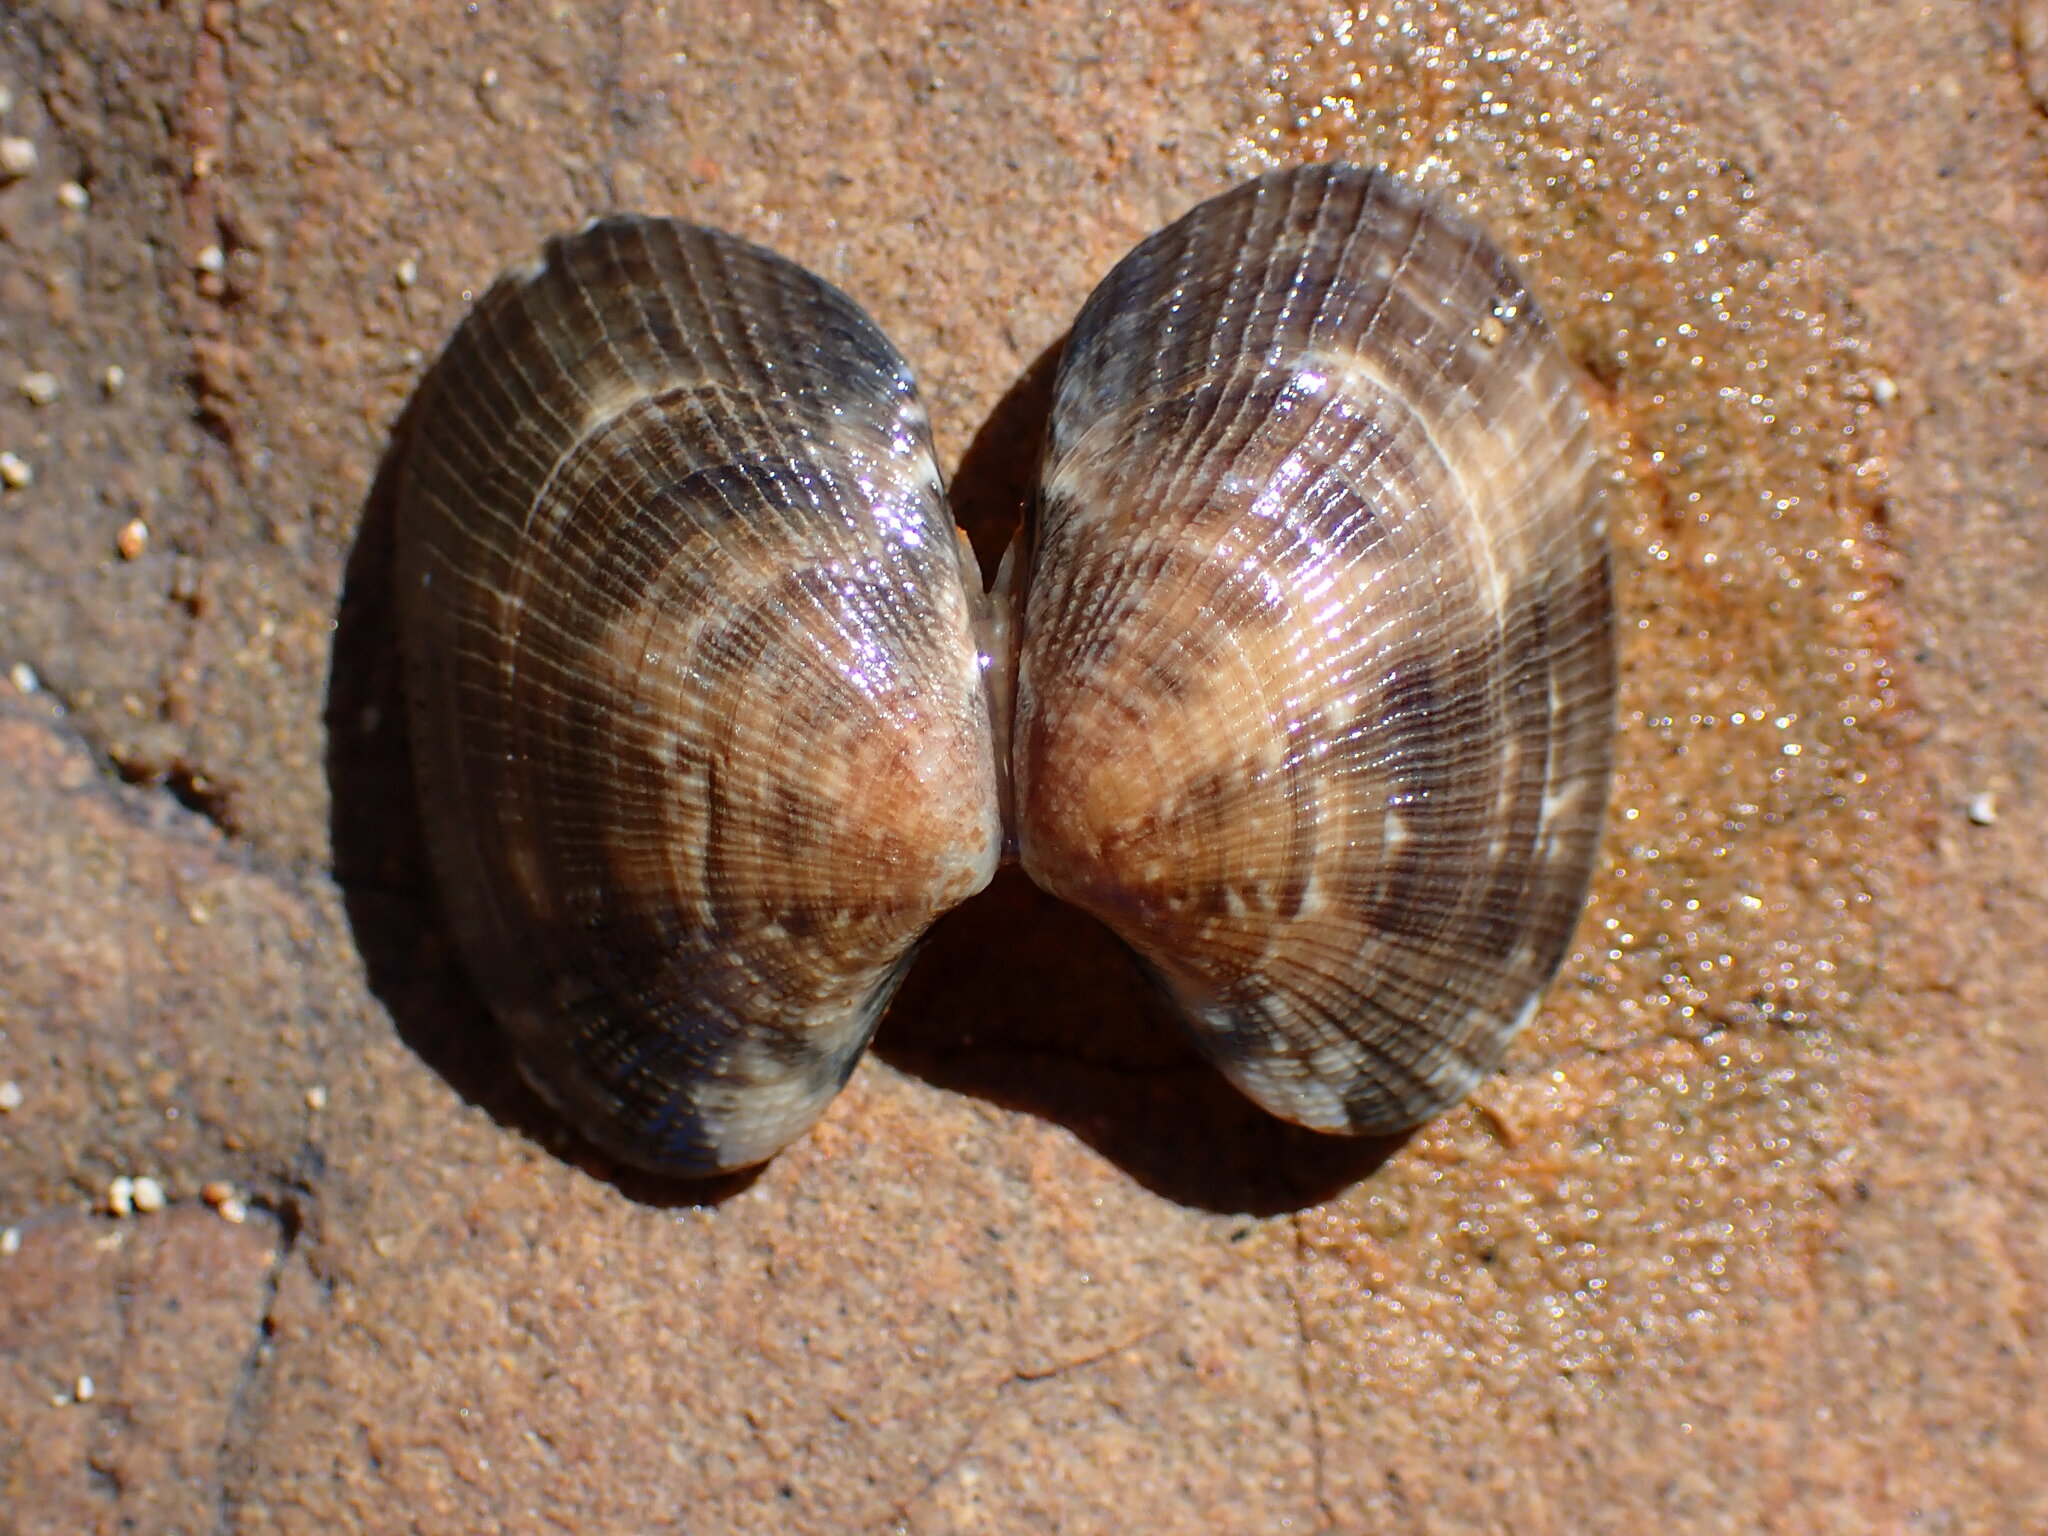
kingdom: Animalia
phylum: Mollusca
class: Bivalvia
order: Venerida
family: Veneridae
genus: Ruditapes
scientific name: Ruditapes philippinarum
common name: Manila clam
